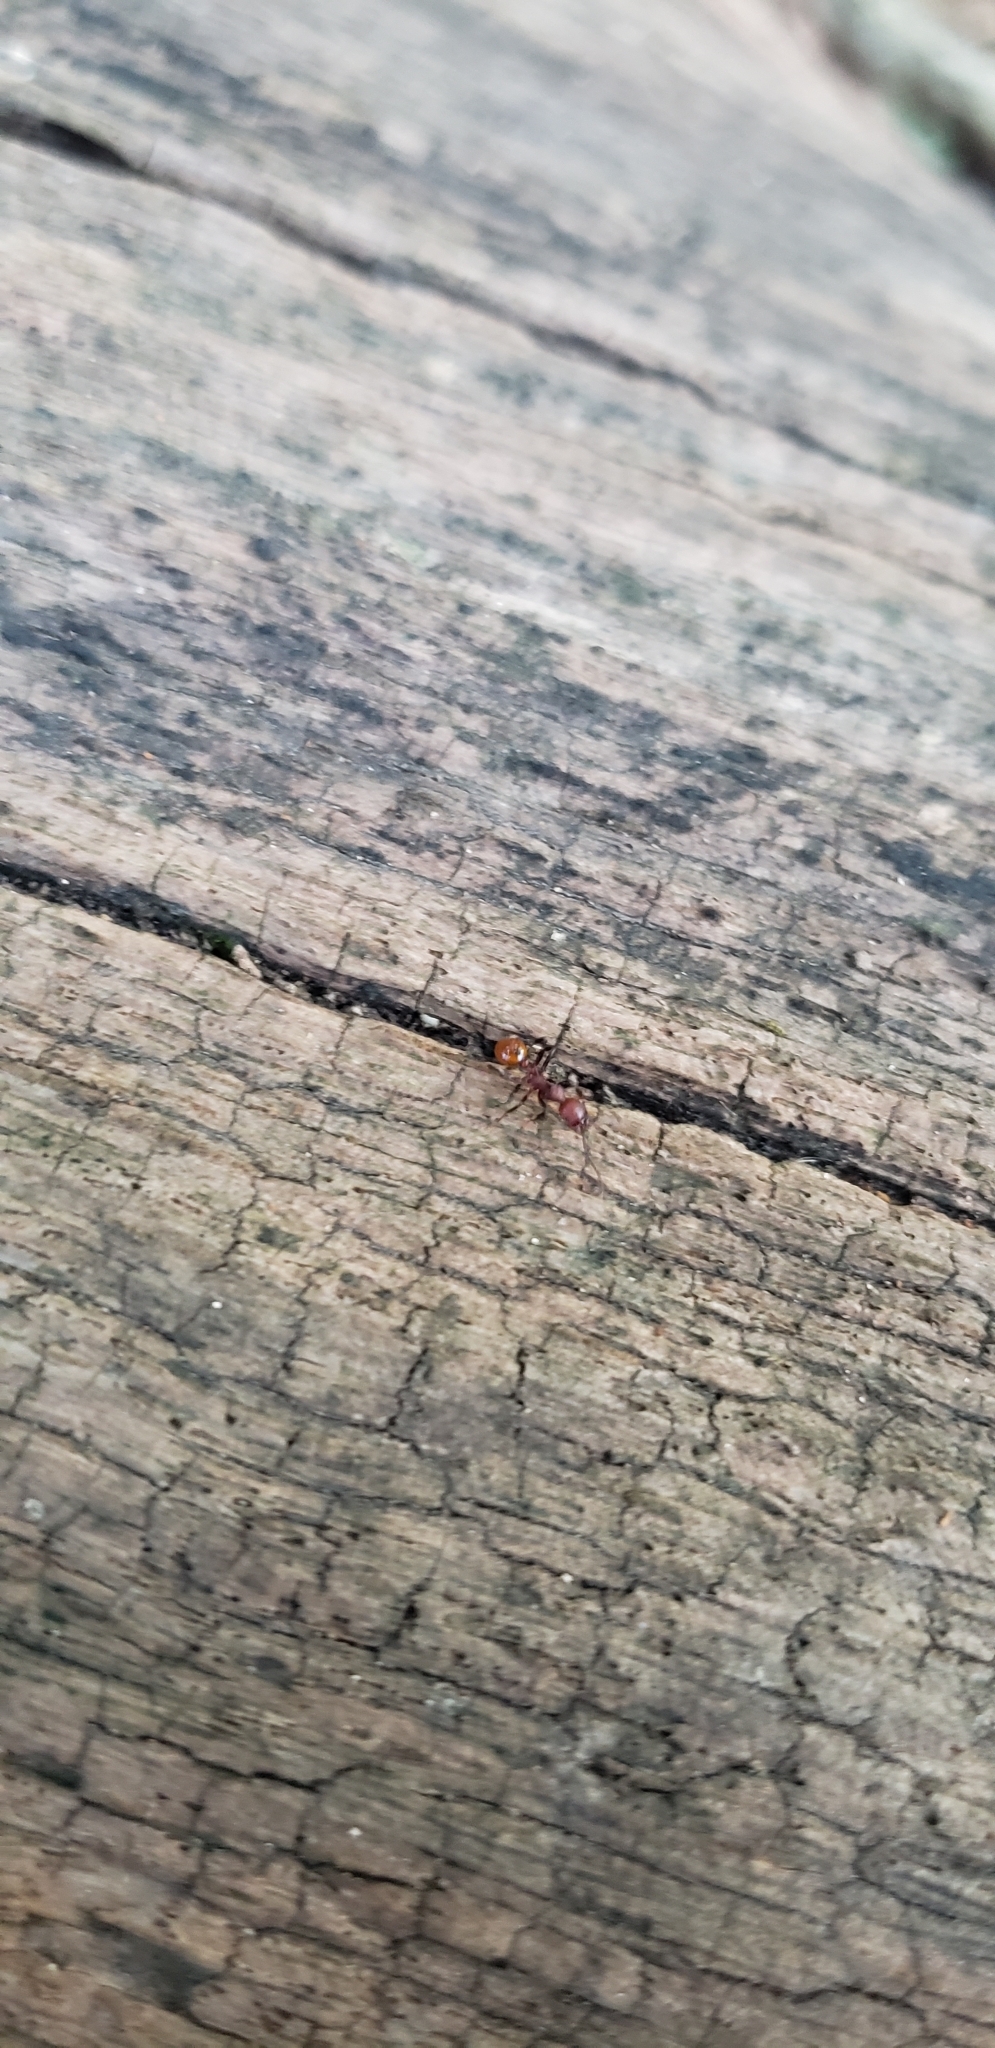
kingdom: Animalia
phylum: Arthropoda
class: Insecta
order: Hymenoptera
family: Formicidae
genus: Aphaenogaster
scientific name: Aphaenogaster tennesseensis
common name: Tennessee thread-waisted ant
